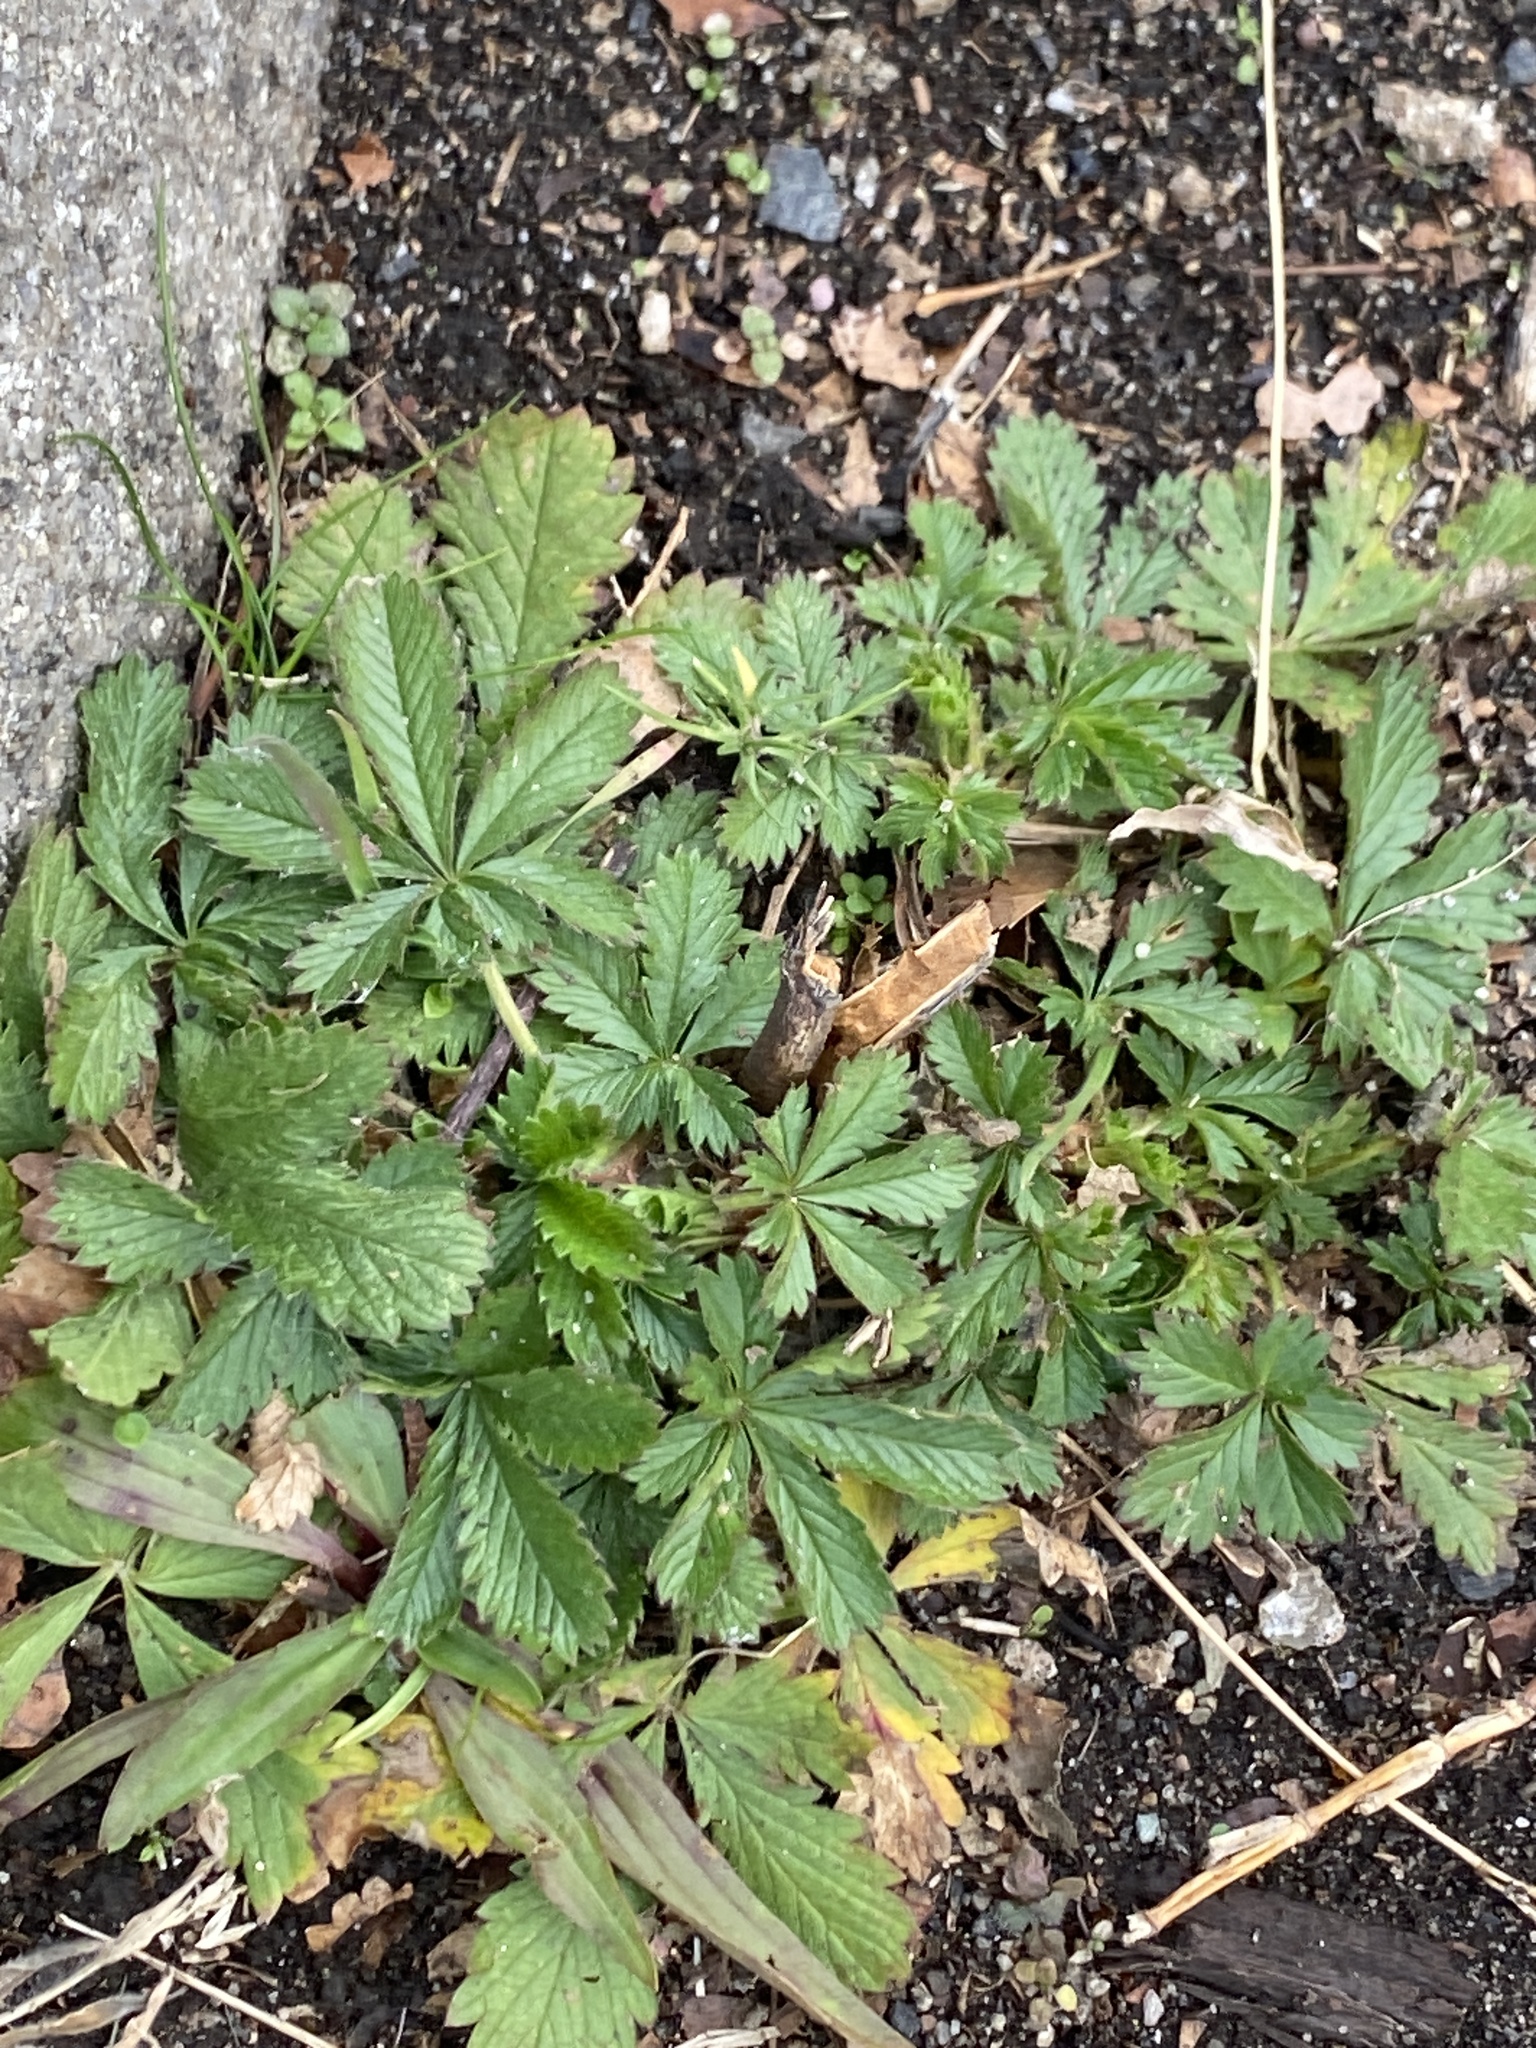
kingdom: Plantae
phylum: Tracheophyta
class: Magnoliopsida
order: Rosales
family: Rosaceae
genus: Potentilla
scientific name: Potentilla recta
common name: Sulphur cinquefoil
